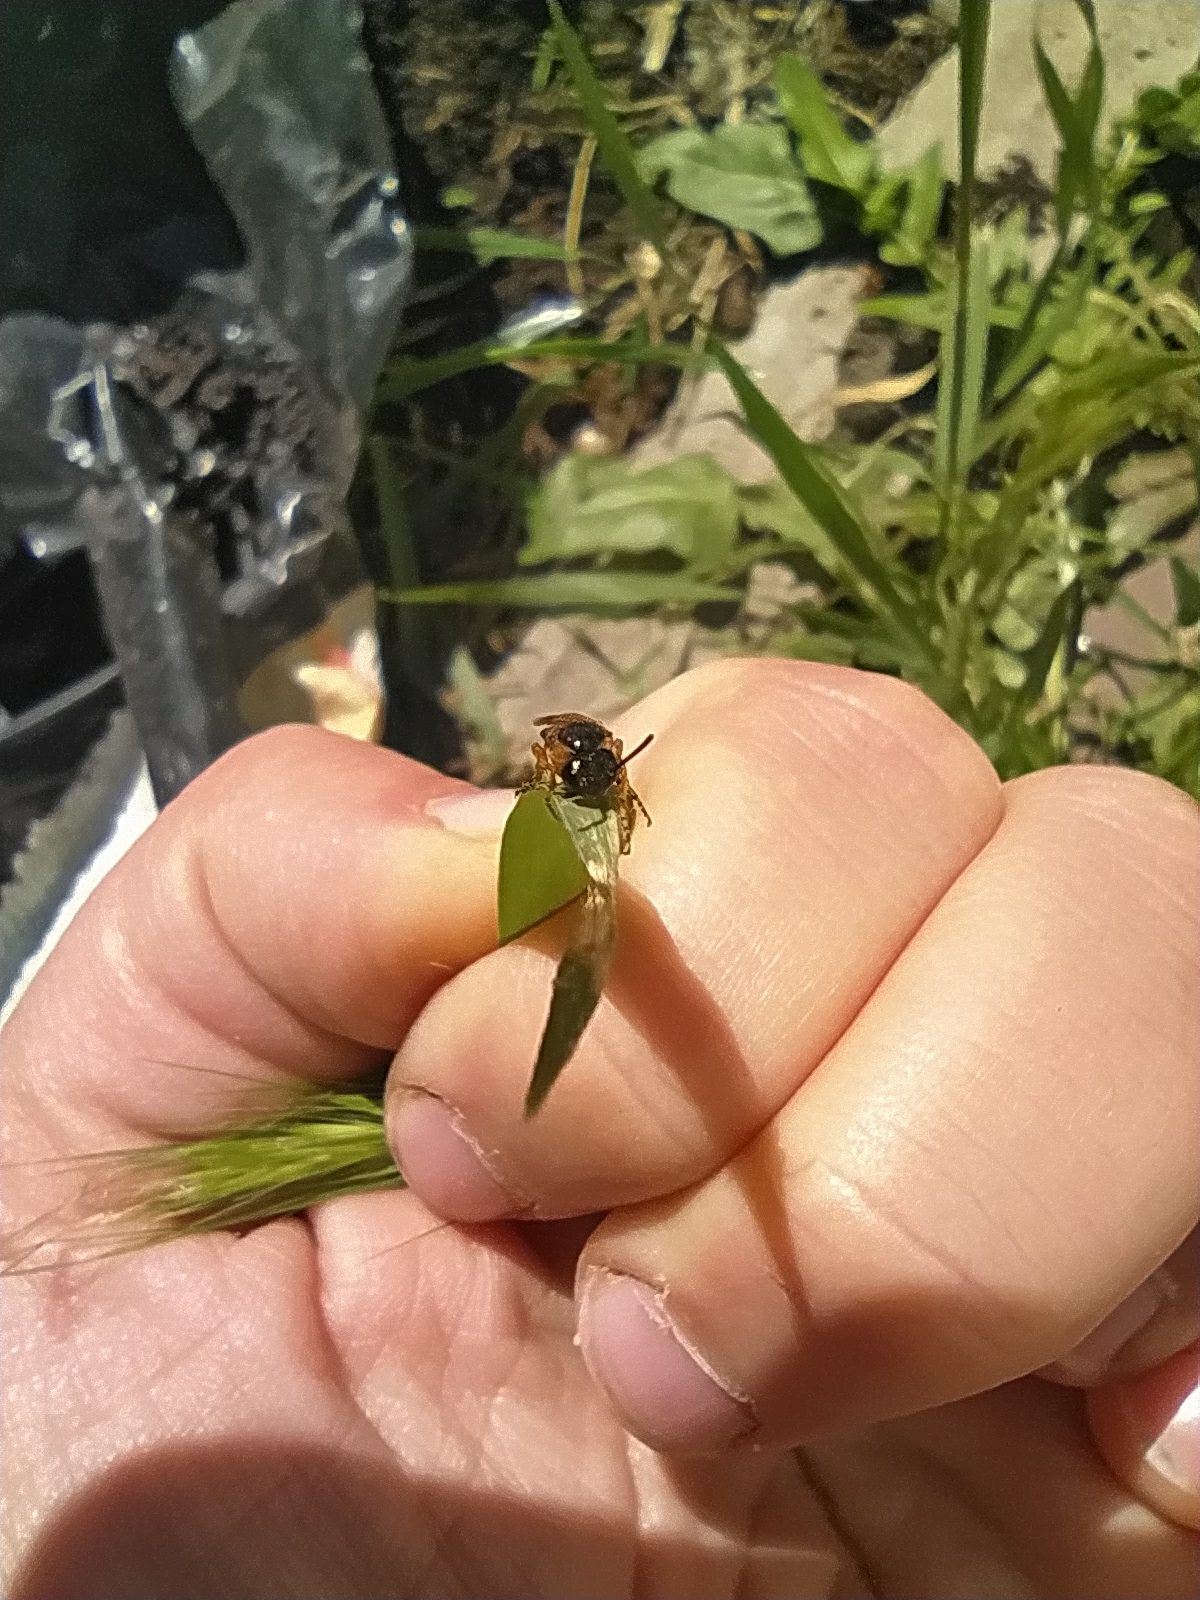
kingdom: Animalia
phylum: Arthropoda
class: Insecta
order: Hymenoptera
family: Argidae
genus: Arge
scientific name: Arge ochropus
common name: Argid sawfly
